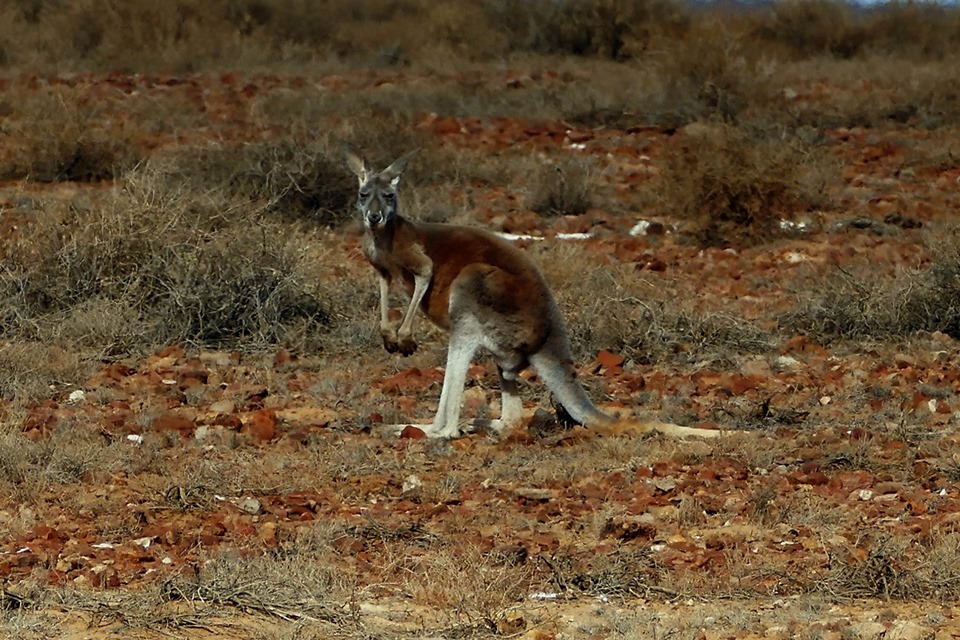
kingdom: Animalia
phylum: Chordata
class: Mammalia
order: Diprotodontia
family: Macropodidae
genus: Macropus
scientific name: Macropus rufus
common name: Red kangaroo
